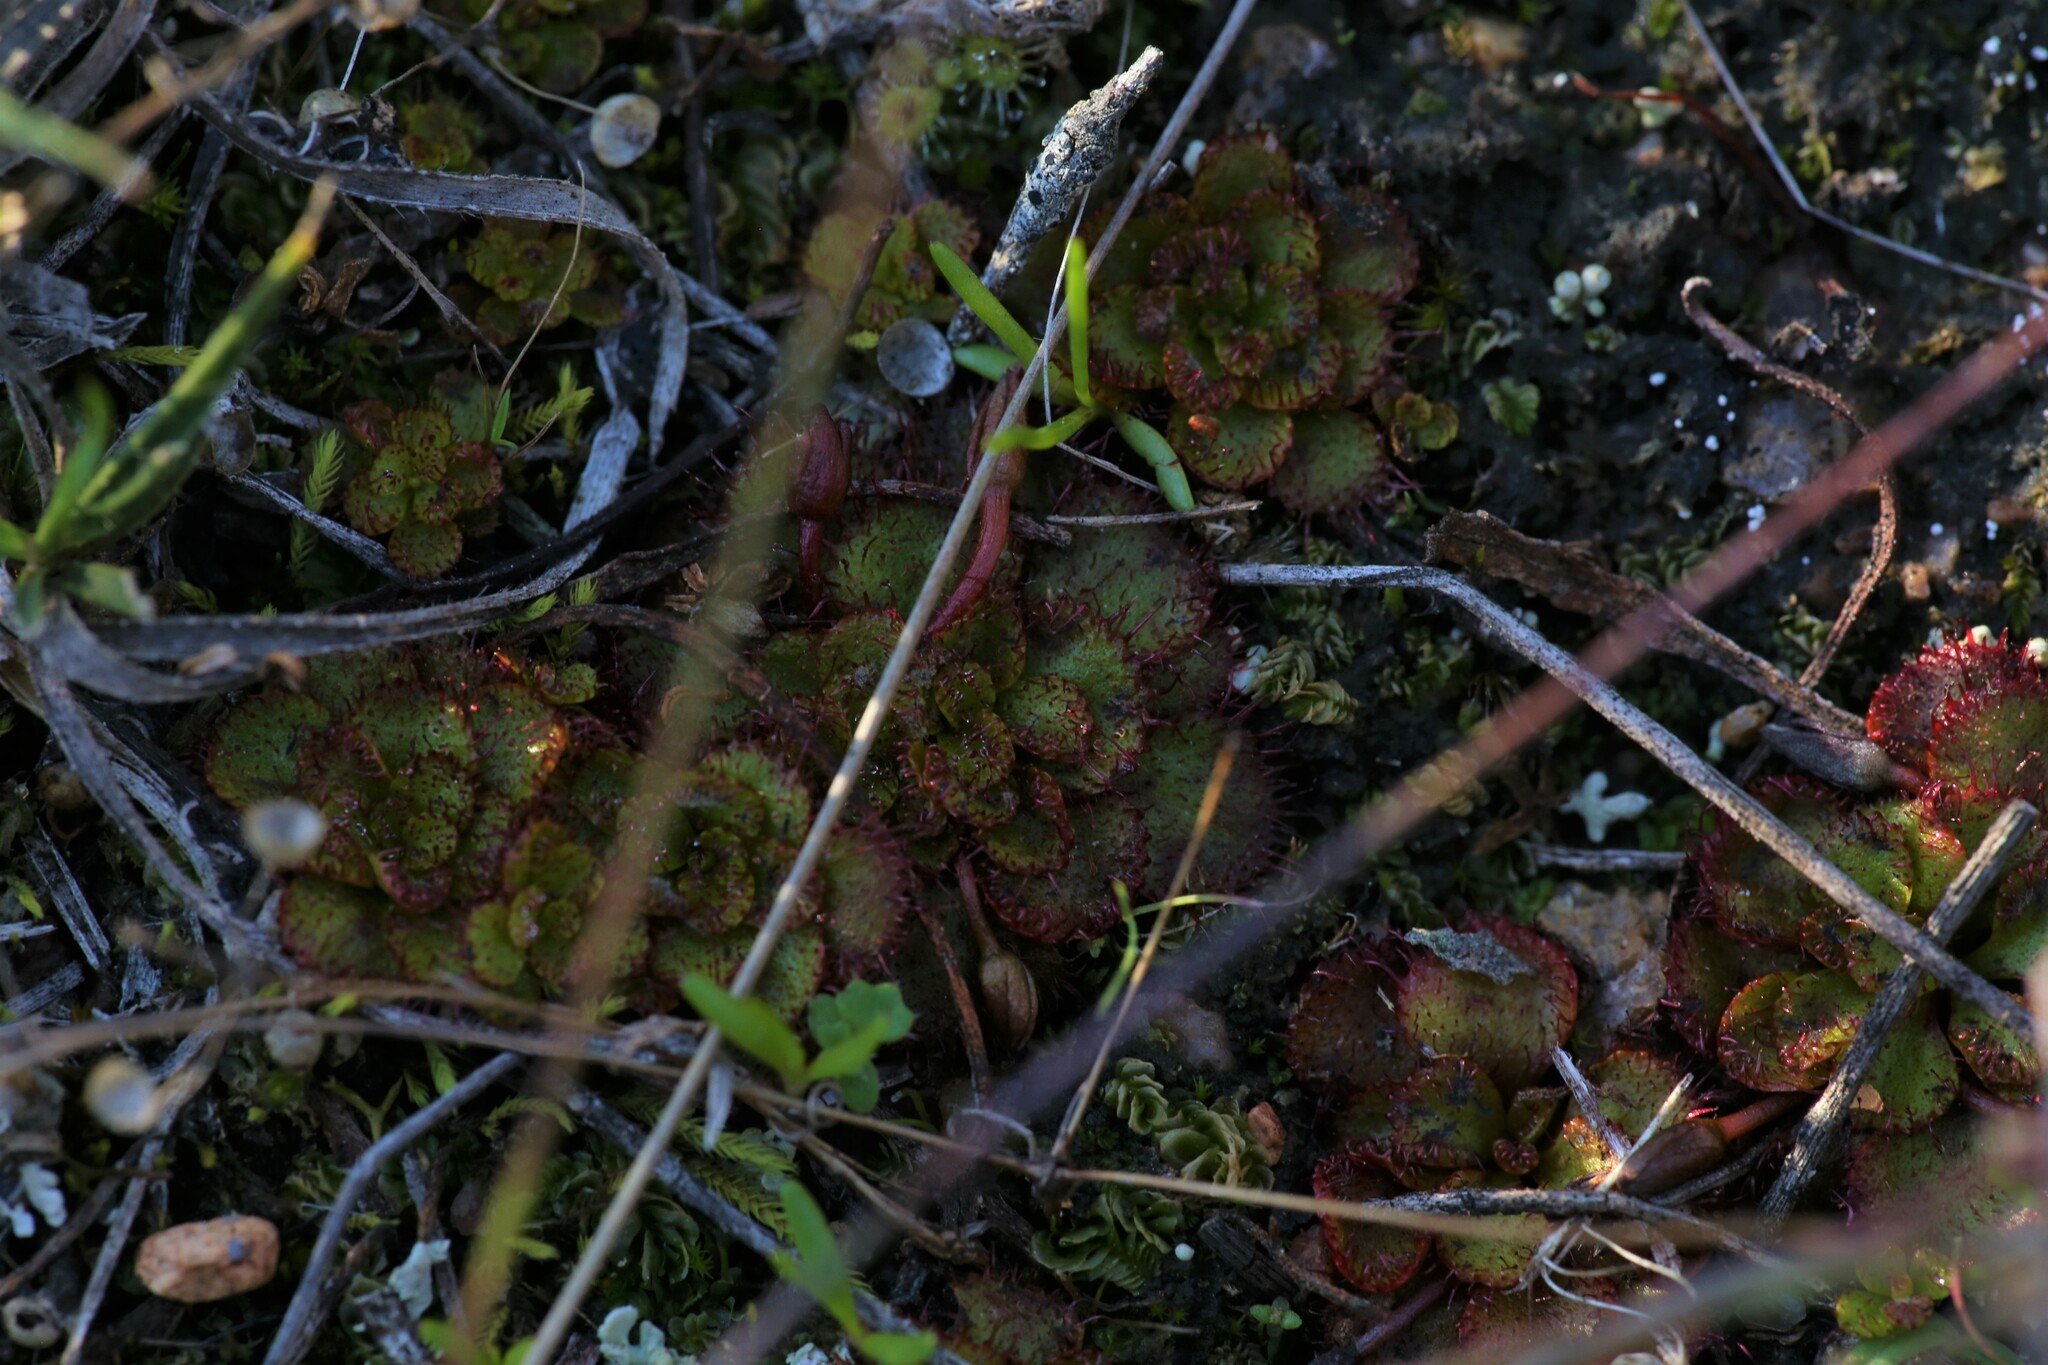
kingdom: Plantae
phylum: Tracheophyta
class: Magnoliopsida
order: Caryophyllales
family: Droseraceae
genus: Drosera
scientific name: Drosera lowriei
